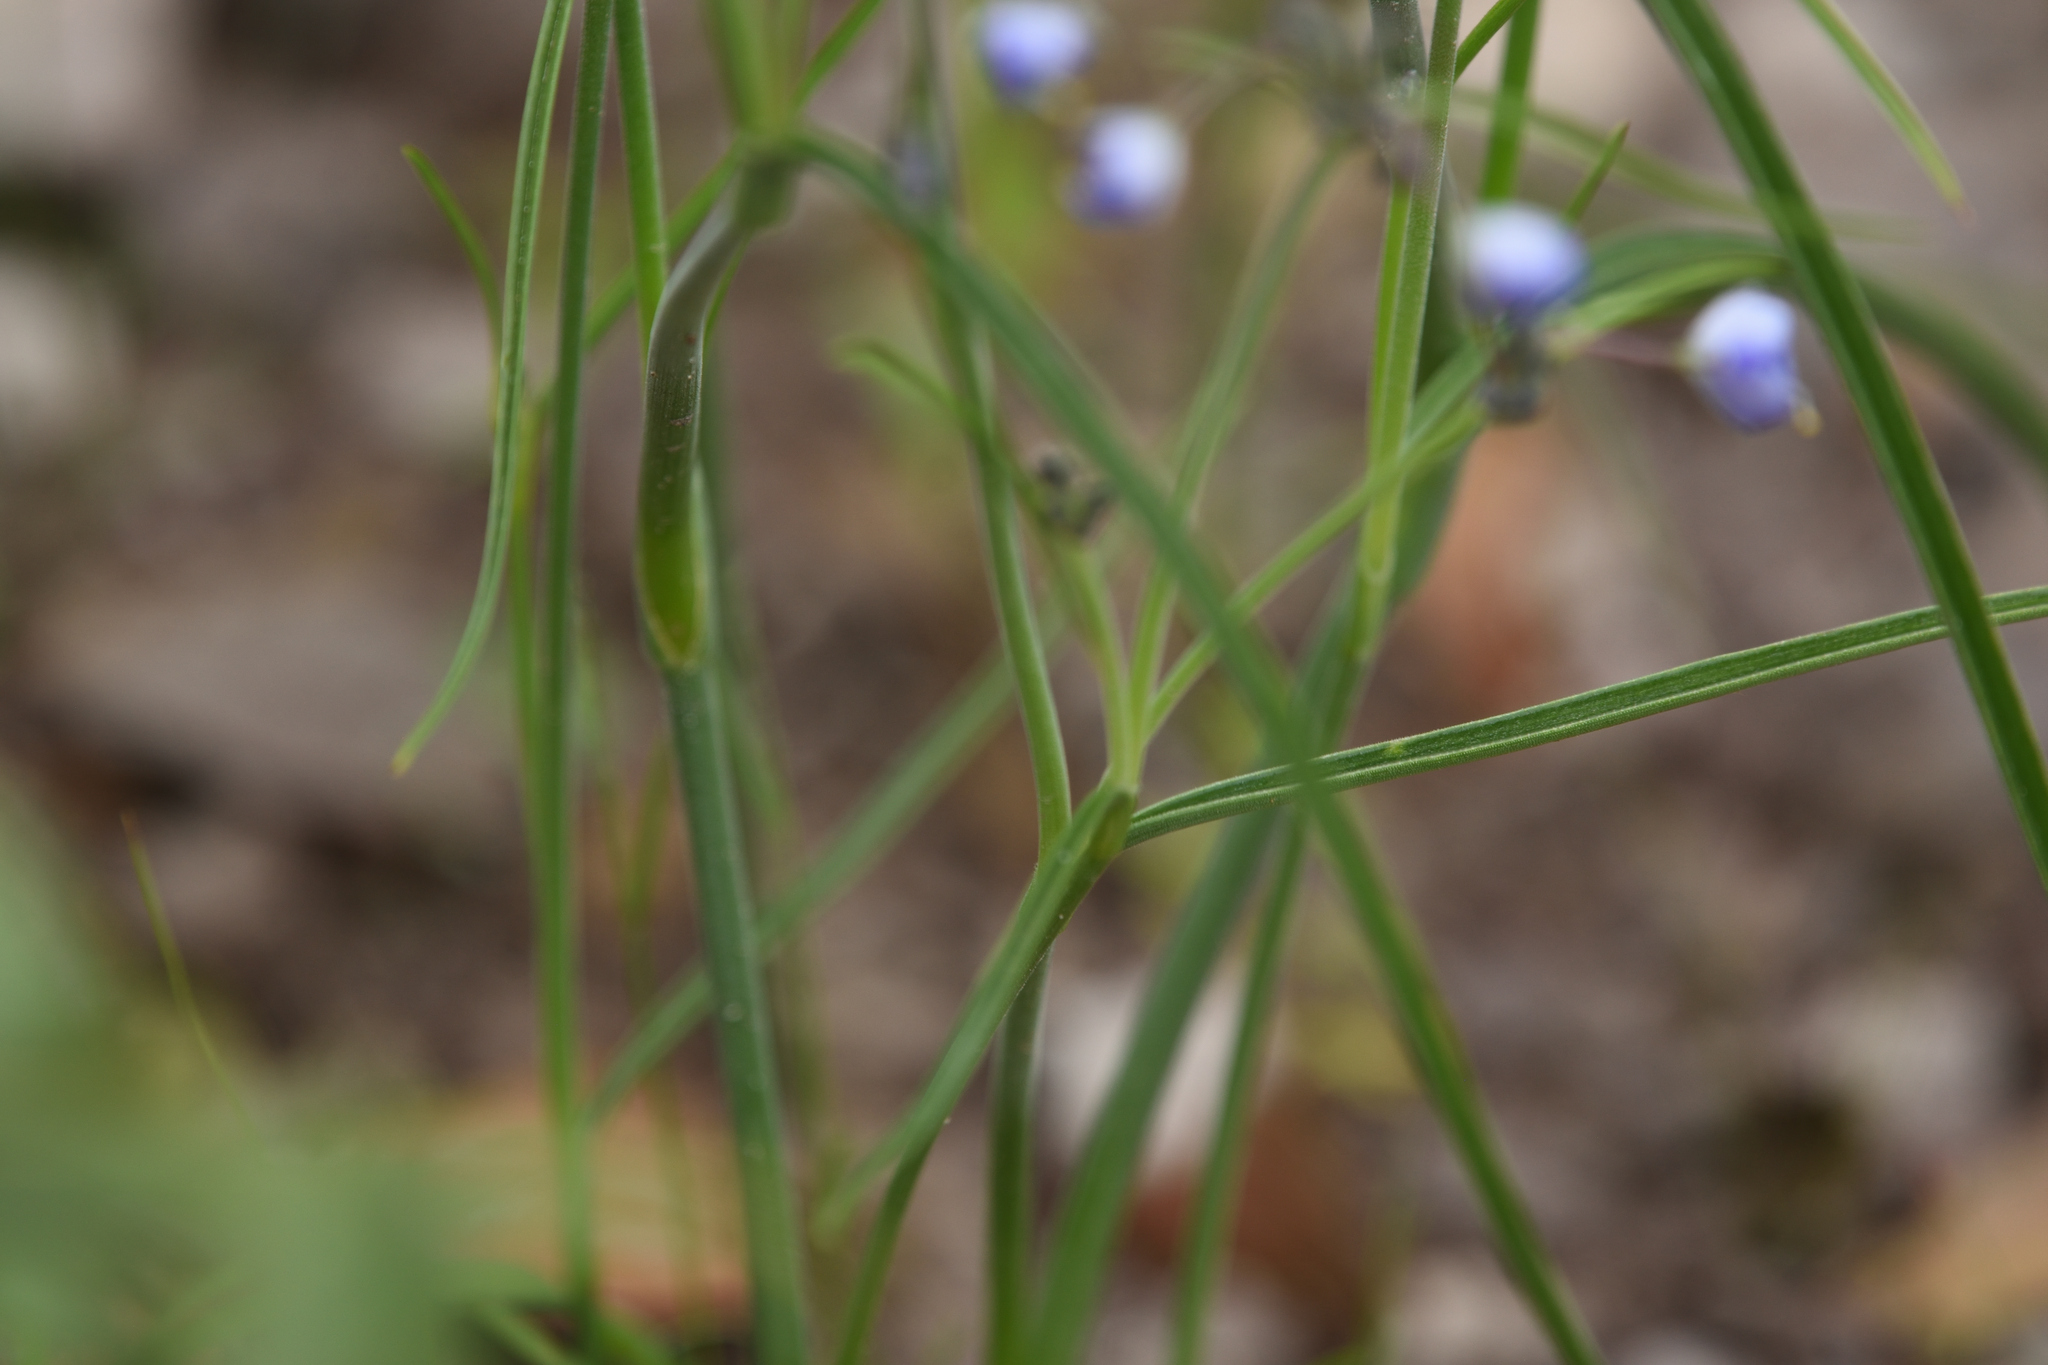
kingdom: Plantae
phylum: Tracheophyta
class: Liliopsida
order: Commelinales
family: Commelinaceae
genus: Tradescantia
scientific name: Tradescantia pinetorum
